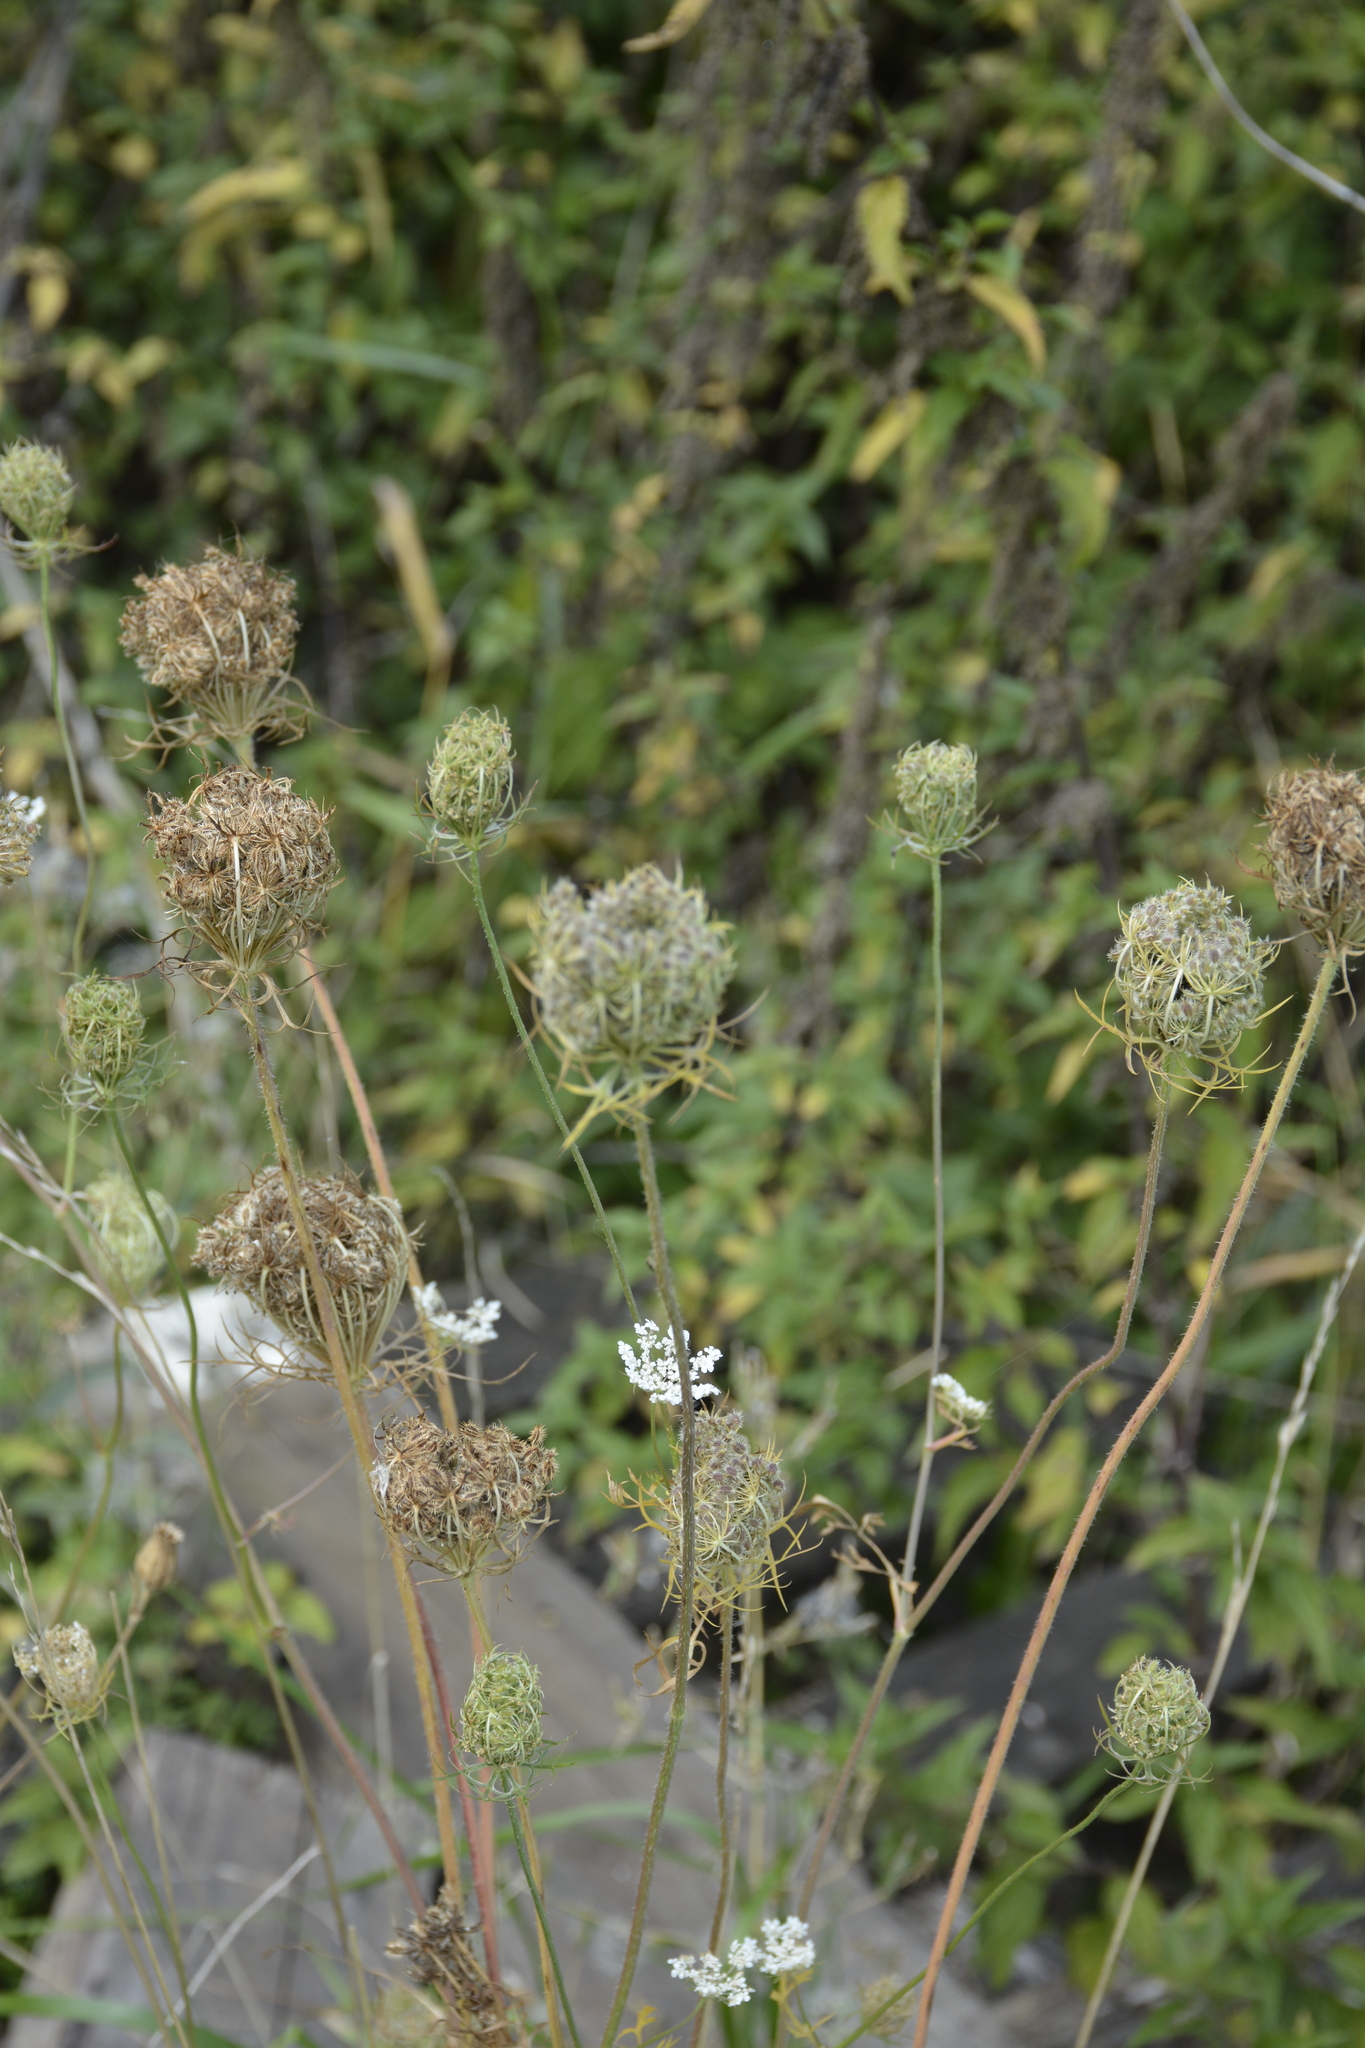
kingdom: Plantae
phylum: Tracheophyta
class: Magnoliopsida
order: Apiales
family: Apiaceae
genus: Daucus
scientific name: Daucus carota
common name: Wild carrot
